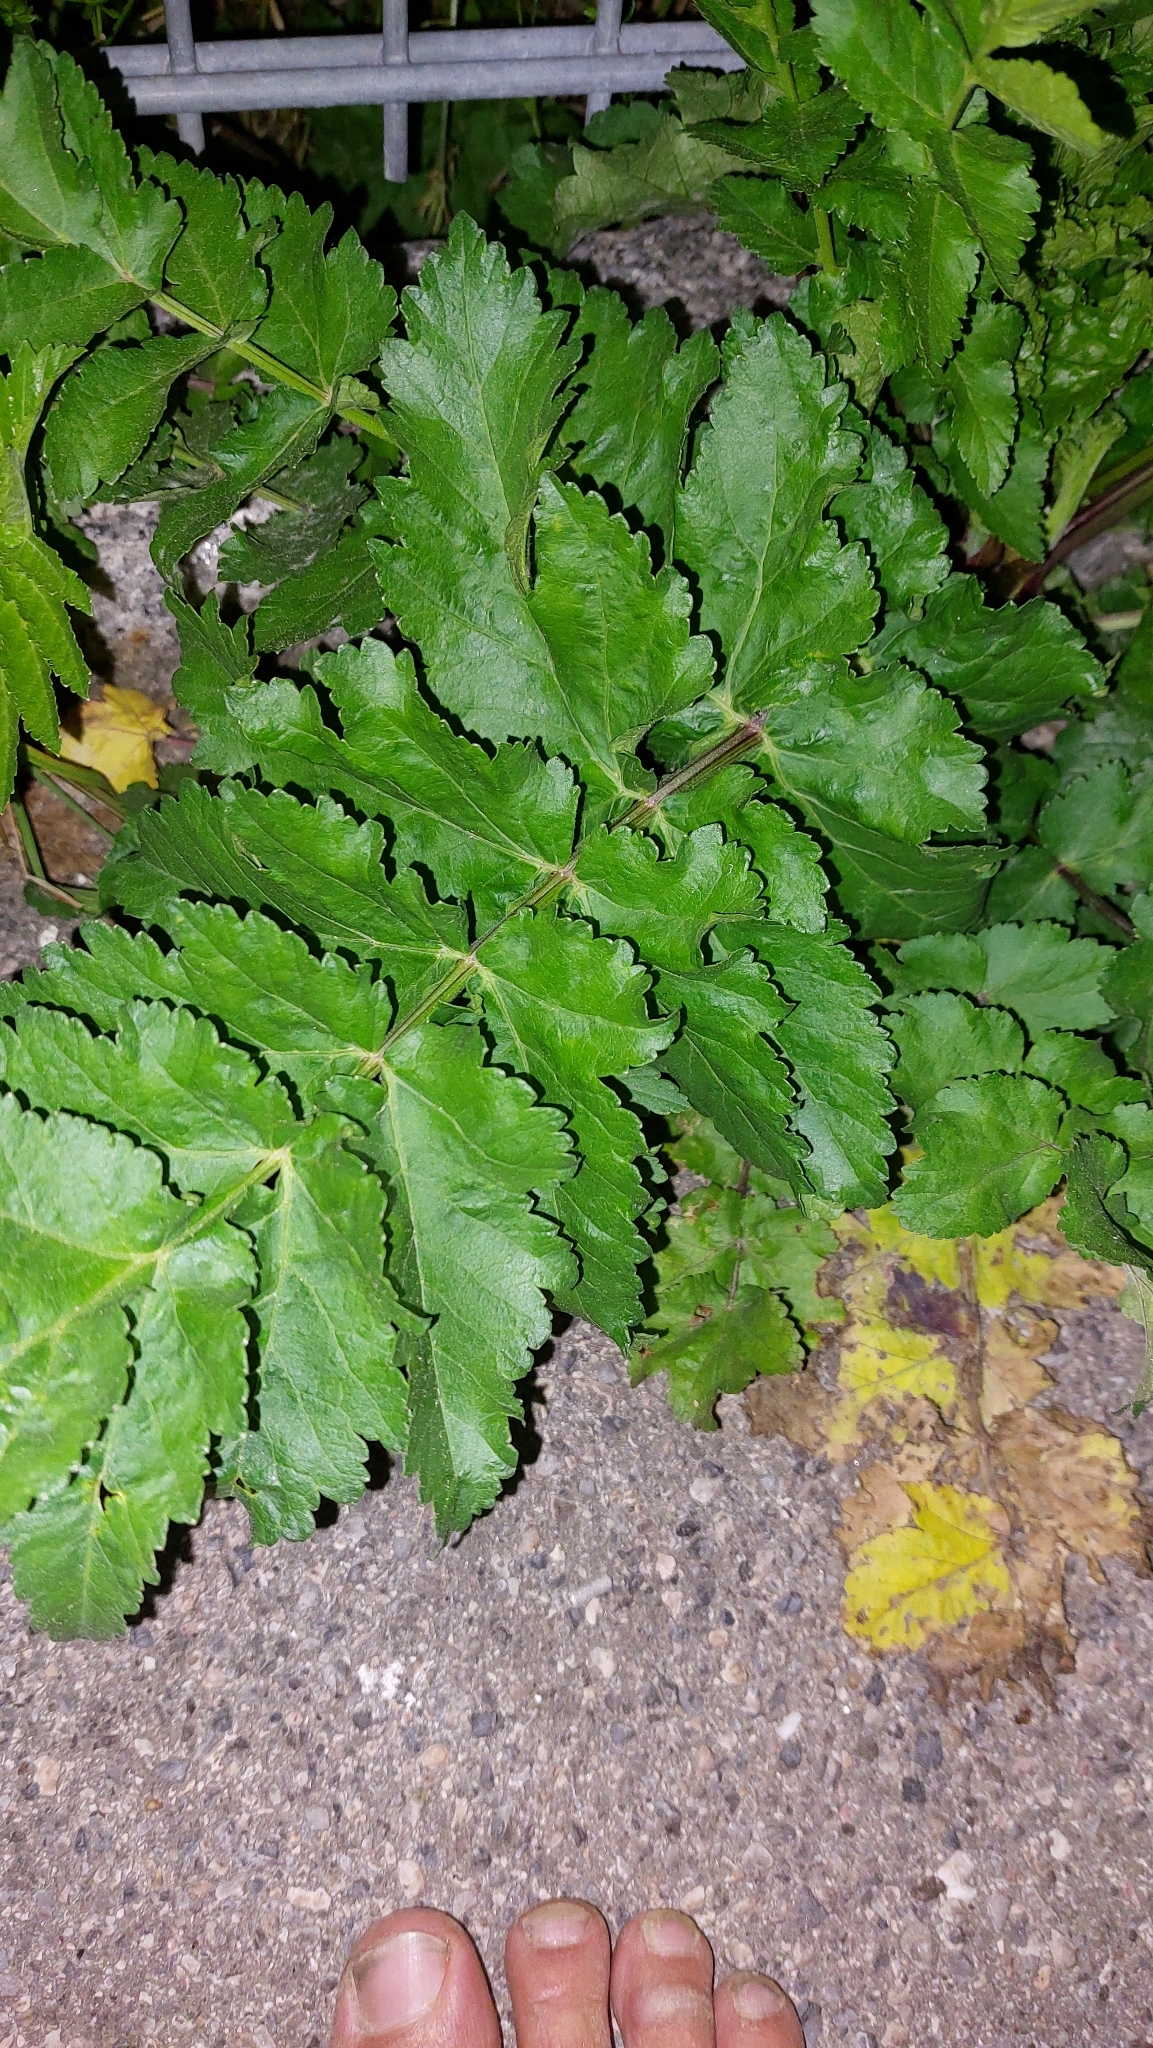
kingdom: Plantae
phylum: Tracheophyta
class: Magnoliopsida
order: Apiales
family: Apiaceae
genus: Pastinaca
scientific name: Pastinaca sativa
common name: Wild parsnip
